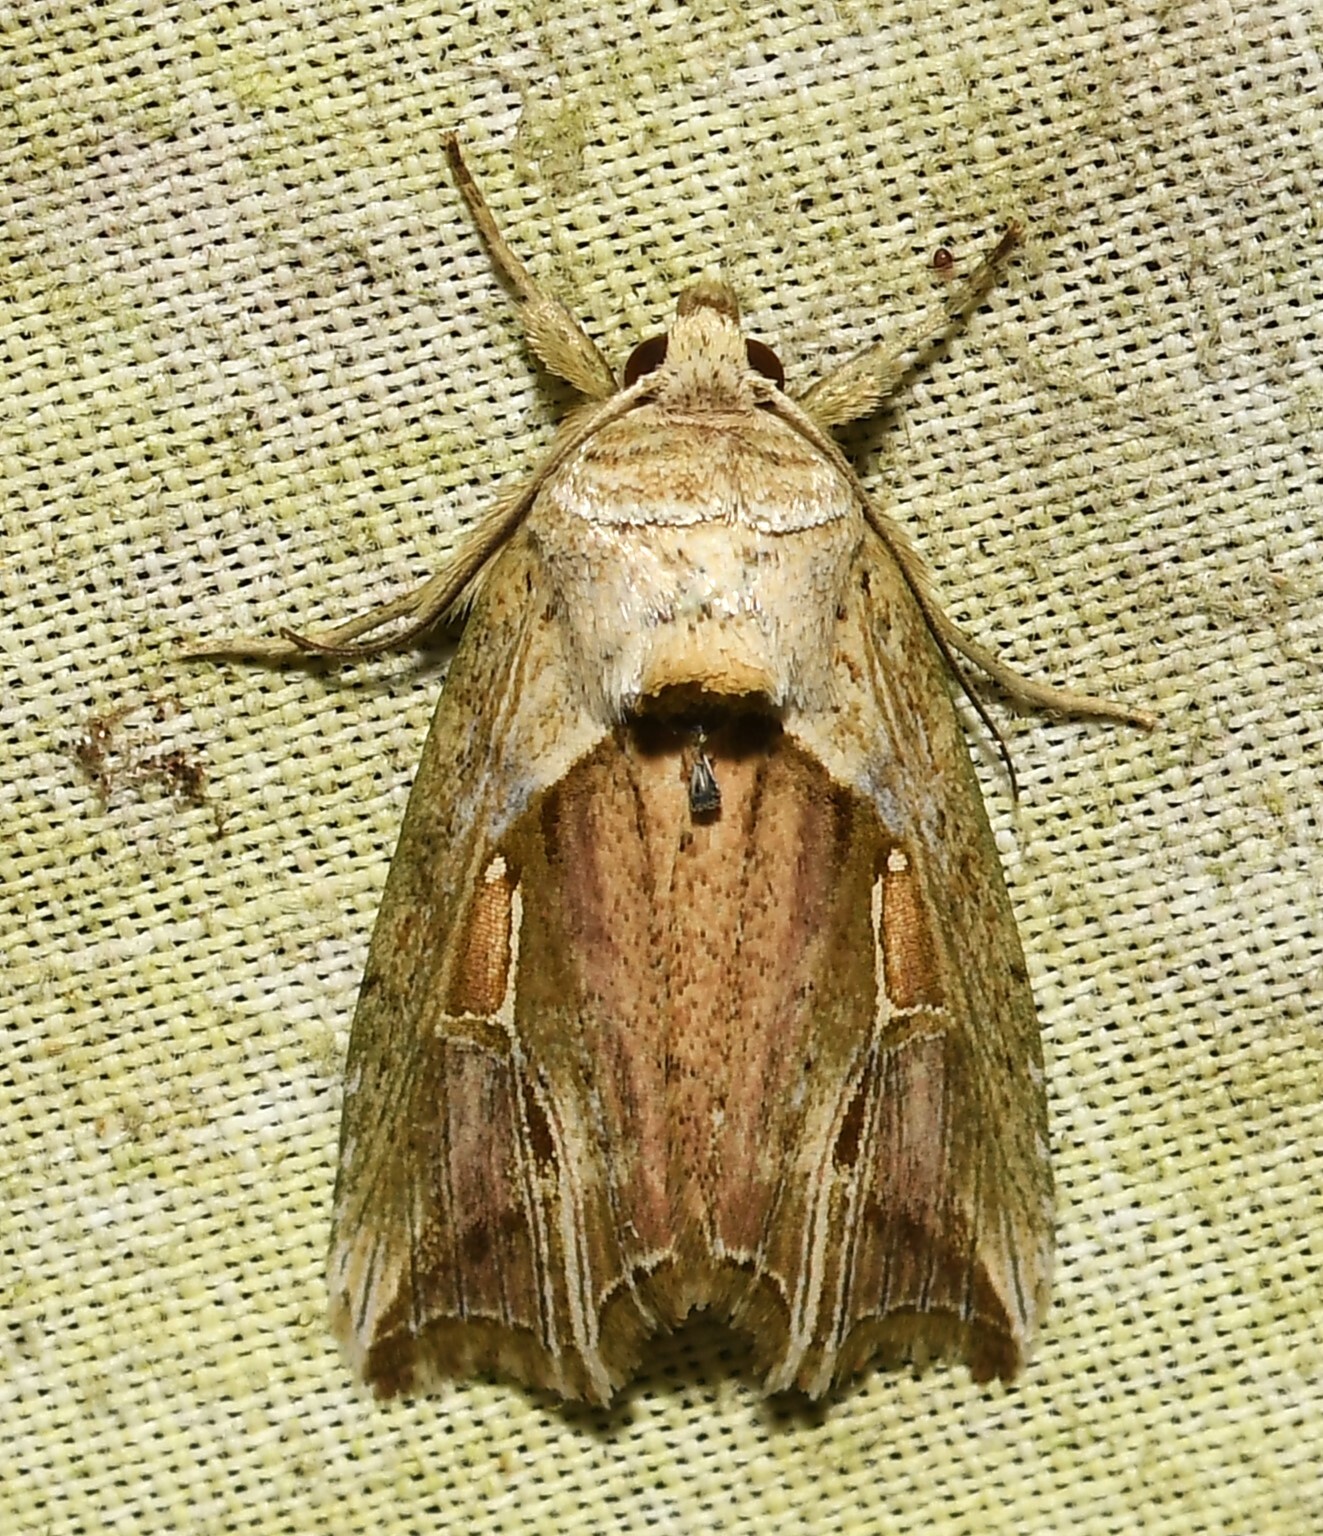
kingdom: Animalia
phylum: Arthropoda
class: Insecta
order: Lepidoptera
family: Noctuidae
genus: Gonodes
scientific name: Gonodes echion
